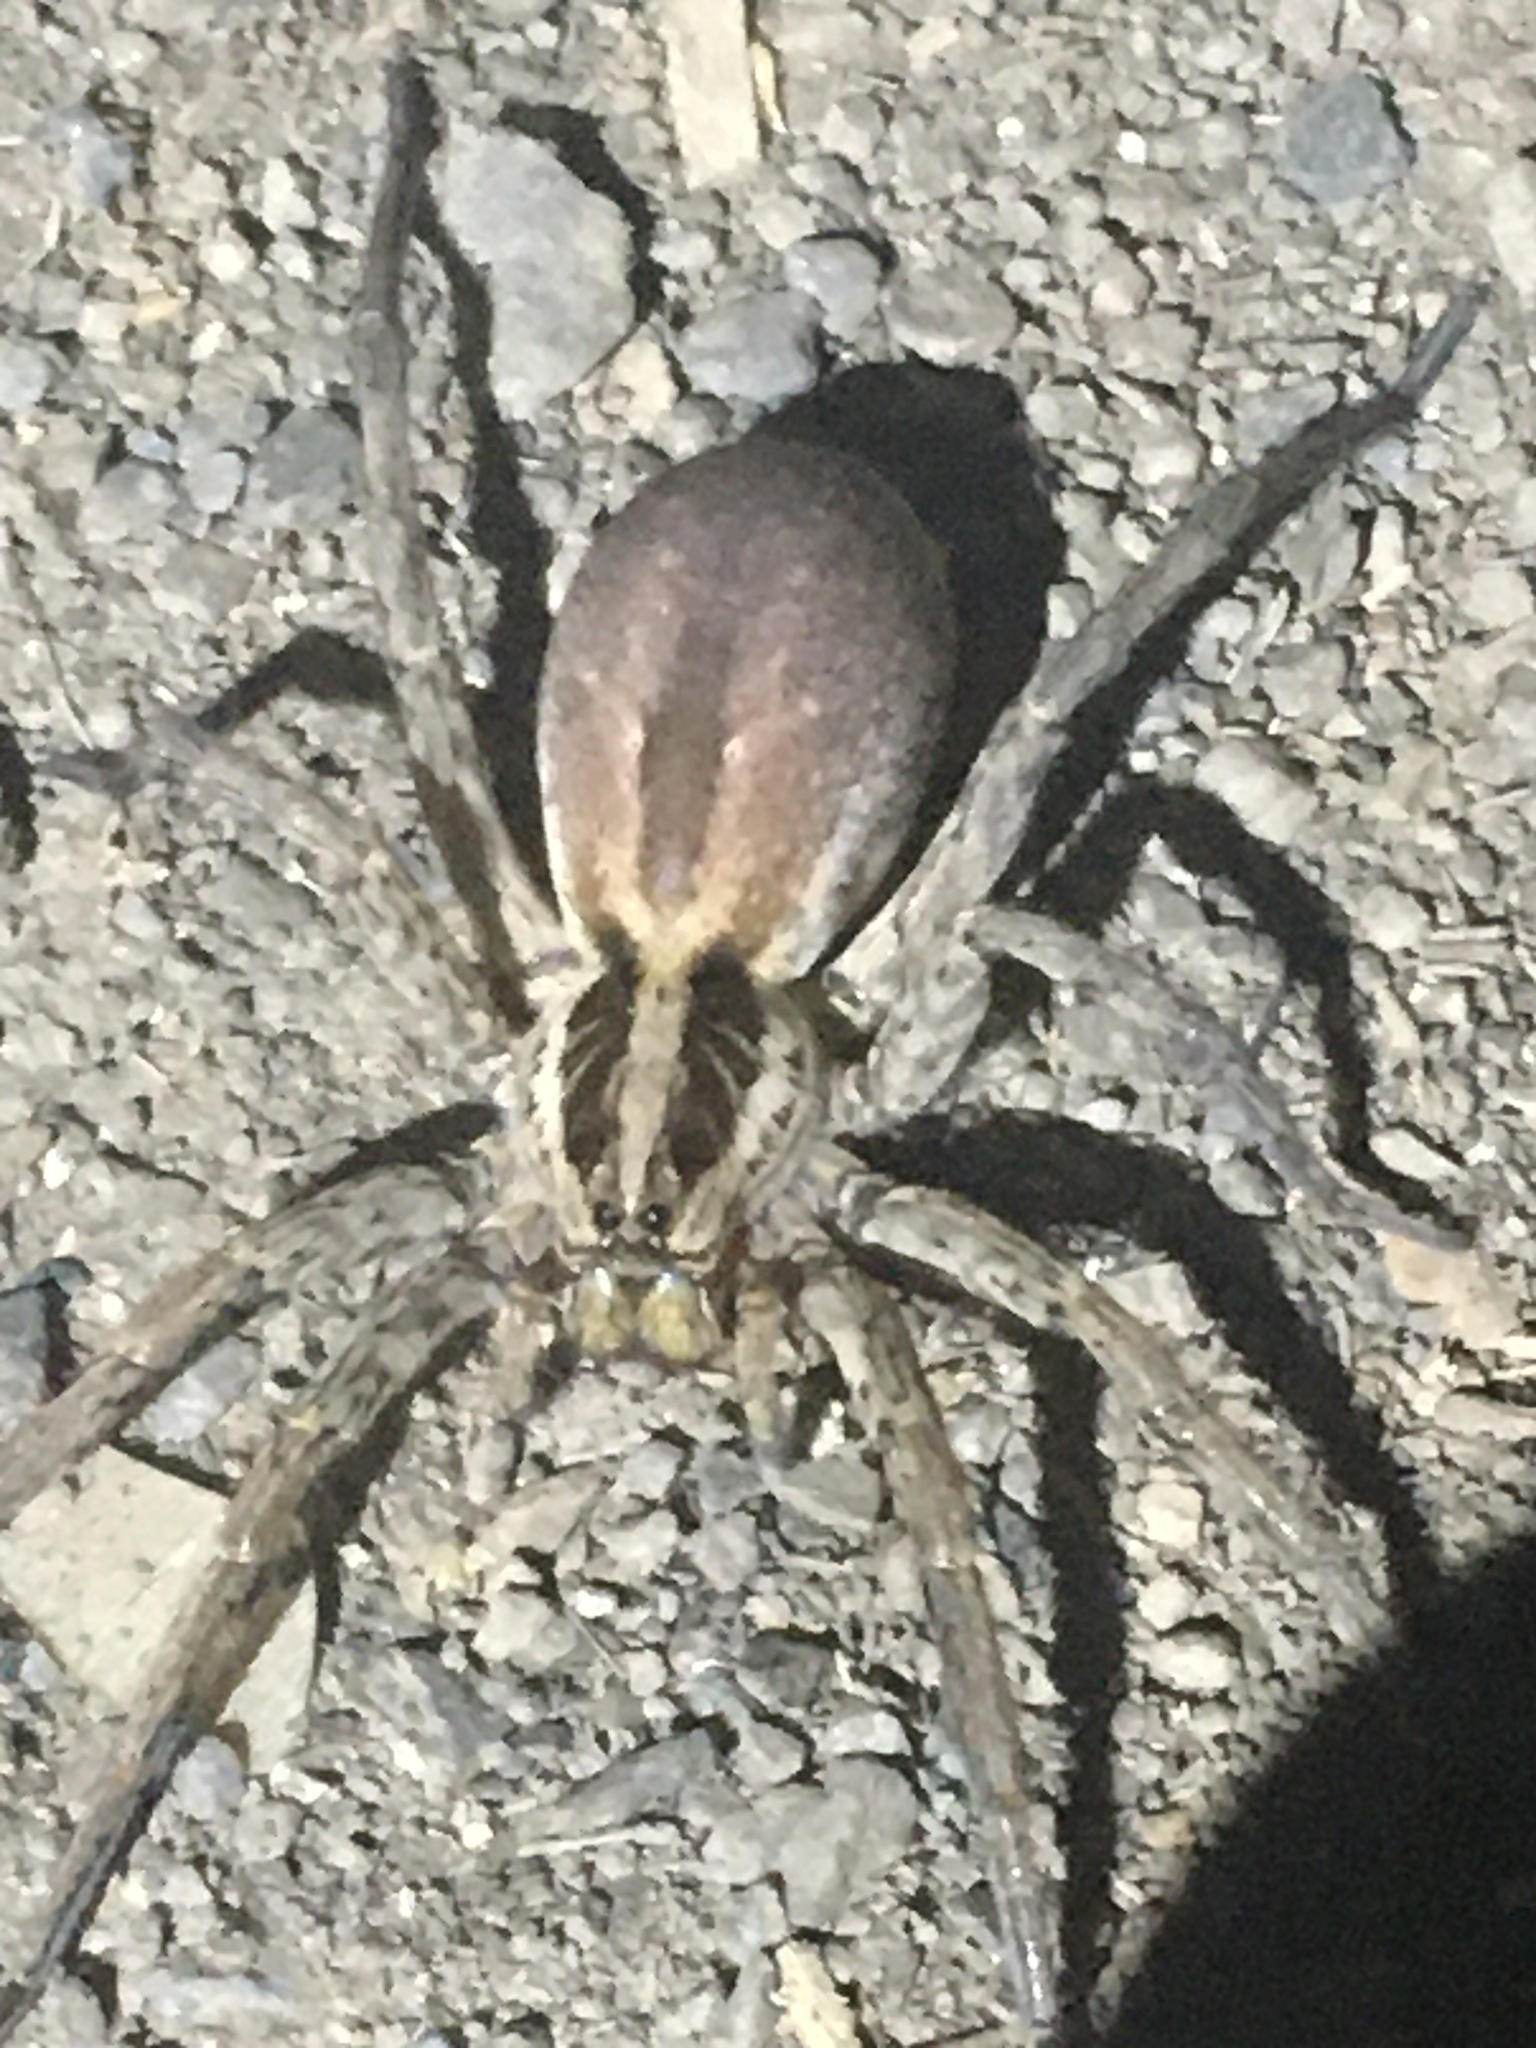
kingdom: Animalia
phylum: Arthropoda
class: Arachnida
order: Araneae
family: Lycosidae
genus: Hogna
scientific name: Hogna radiata
